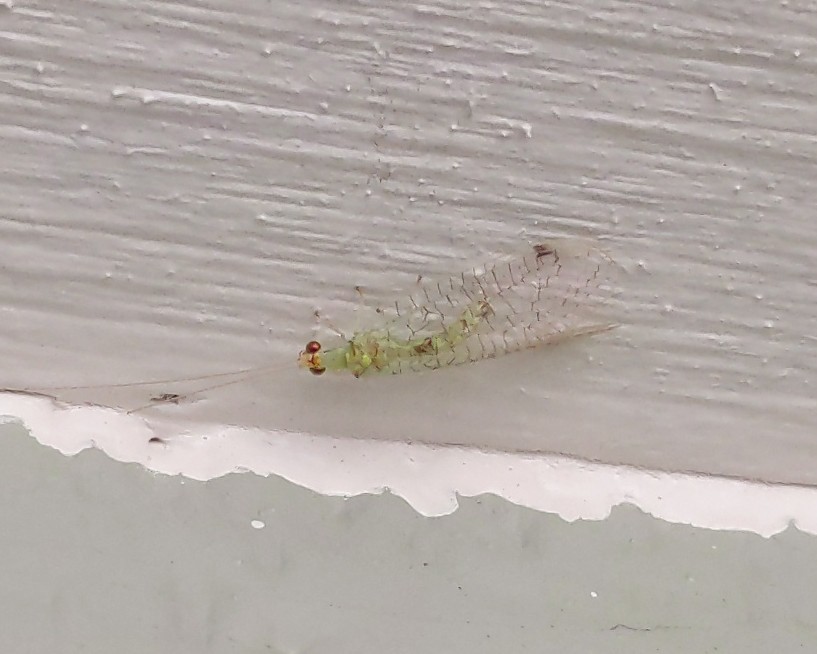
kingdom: Animalia
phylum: Arthropoda
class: Insecta
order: Neuroptera
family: Chrysopidae
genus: Leucochrysa
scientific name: Leucochrysa americana
